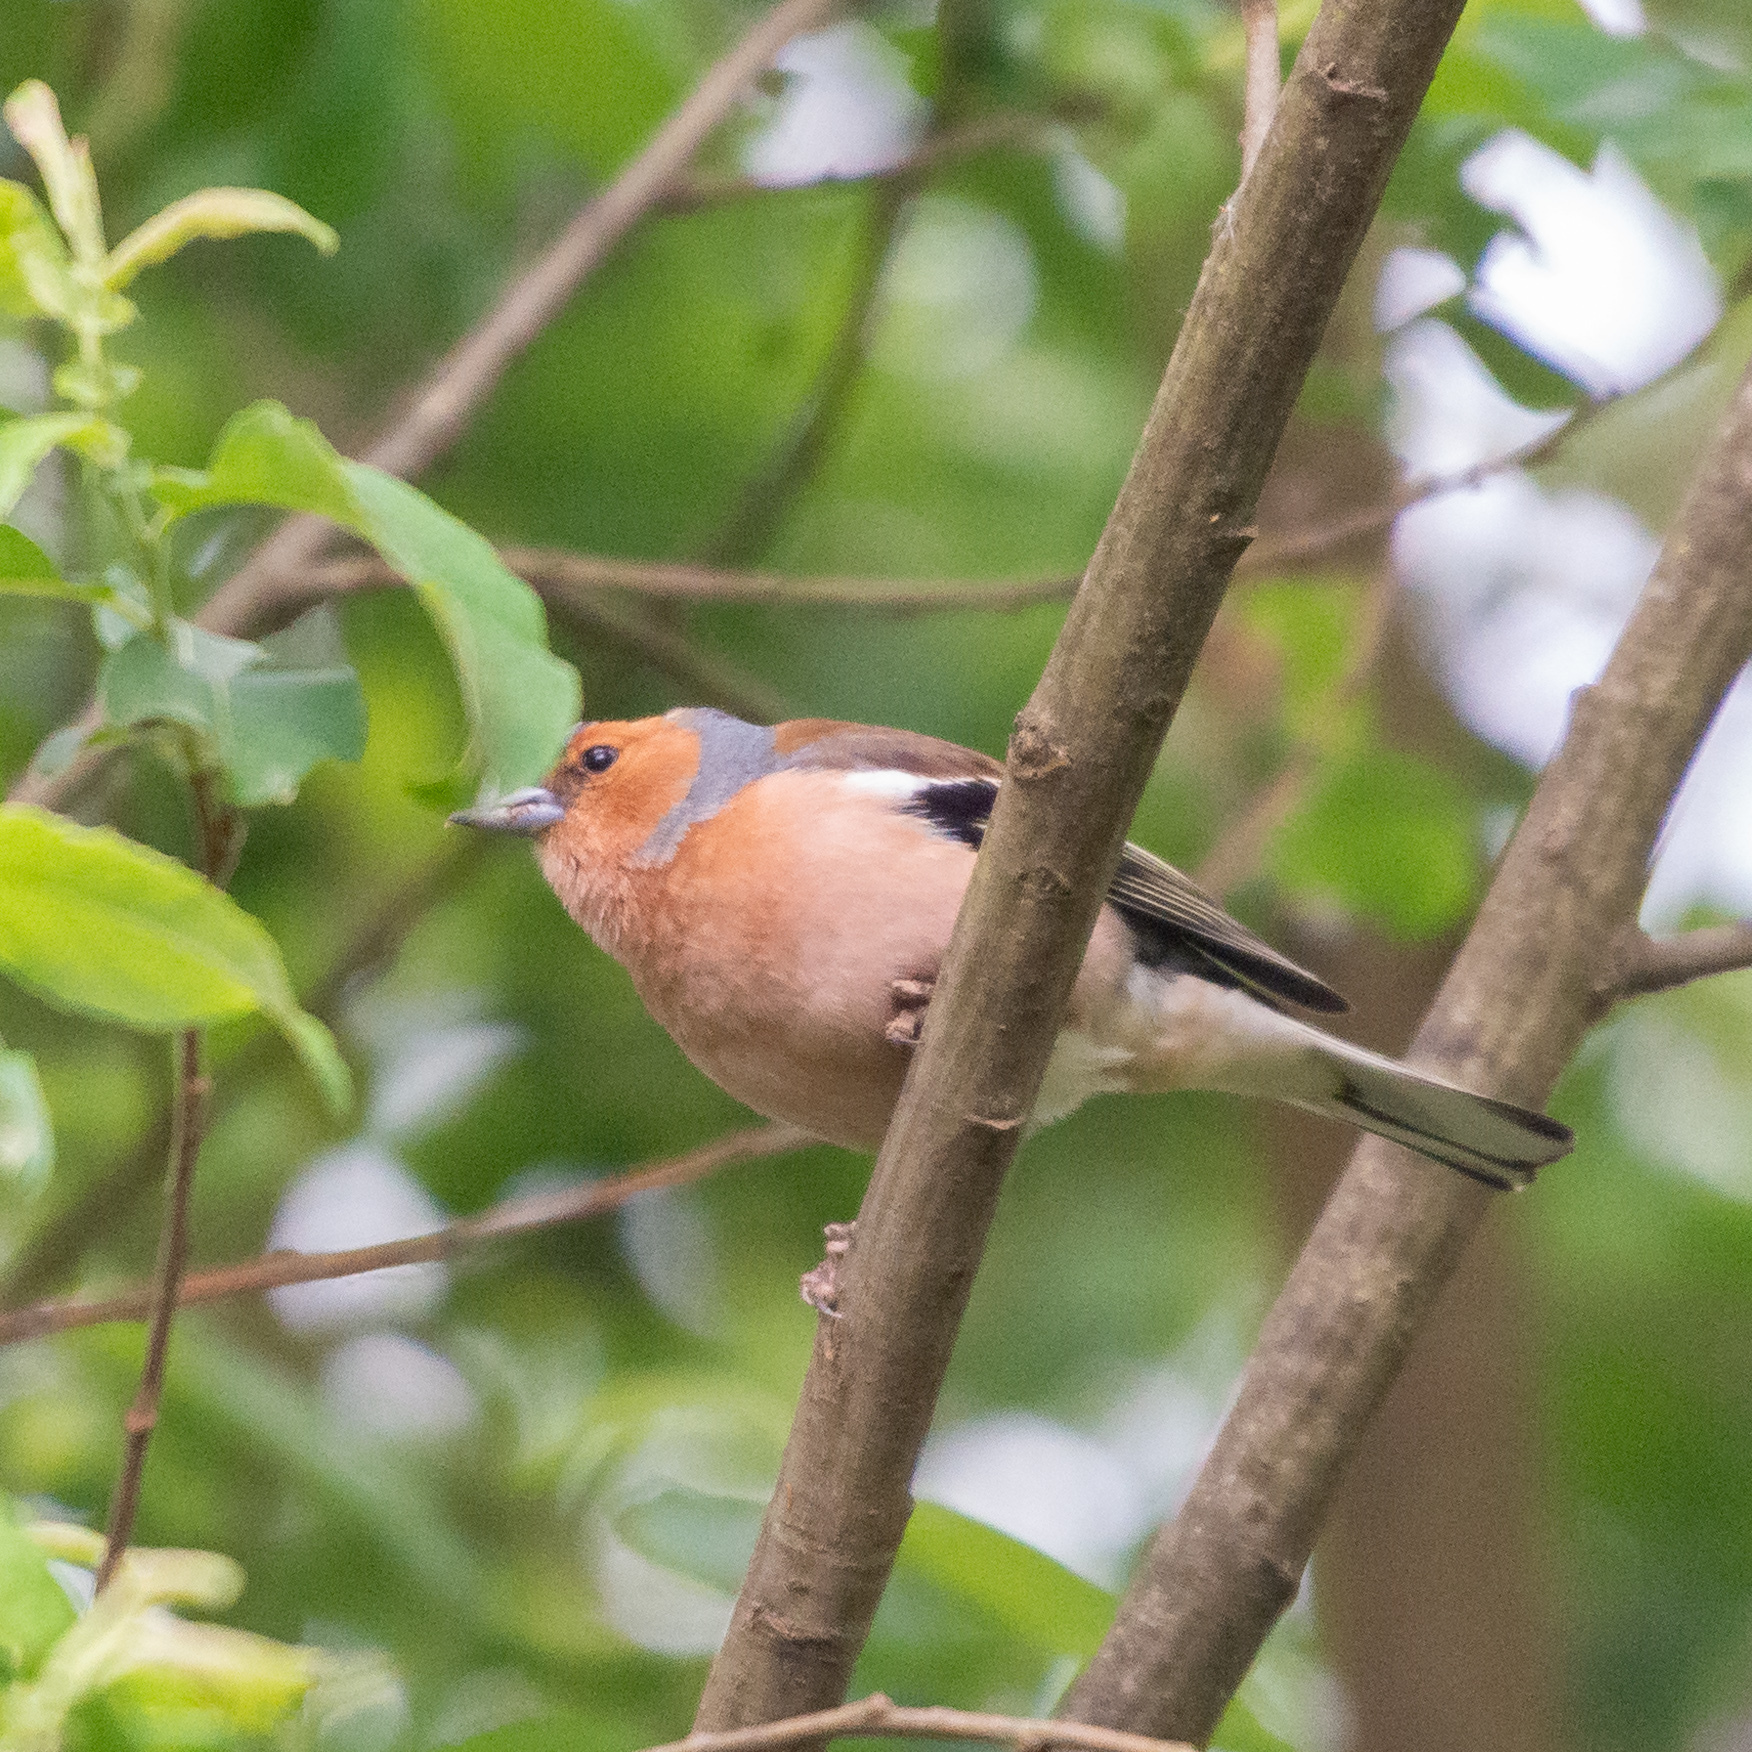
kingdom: Animalia
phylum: Chordata
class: Aves
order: Passeriformes
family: Fringillidae
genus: Fringilla
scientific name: Fringilla coelebs
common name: Common chaffinch
